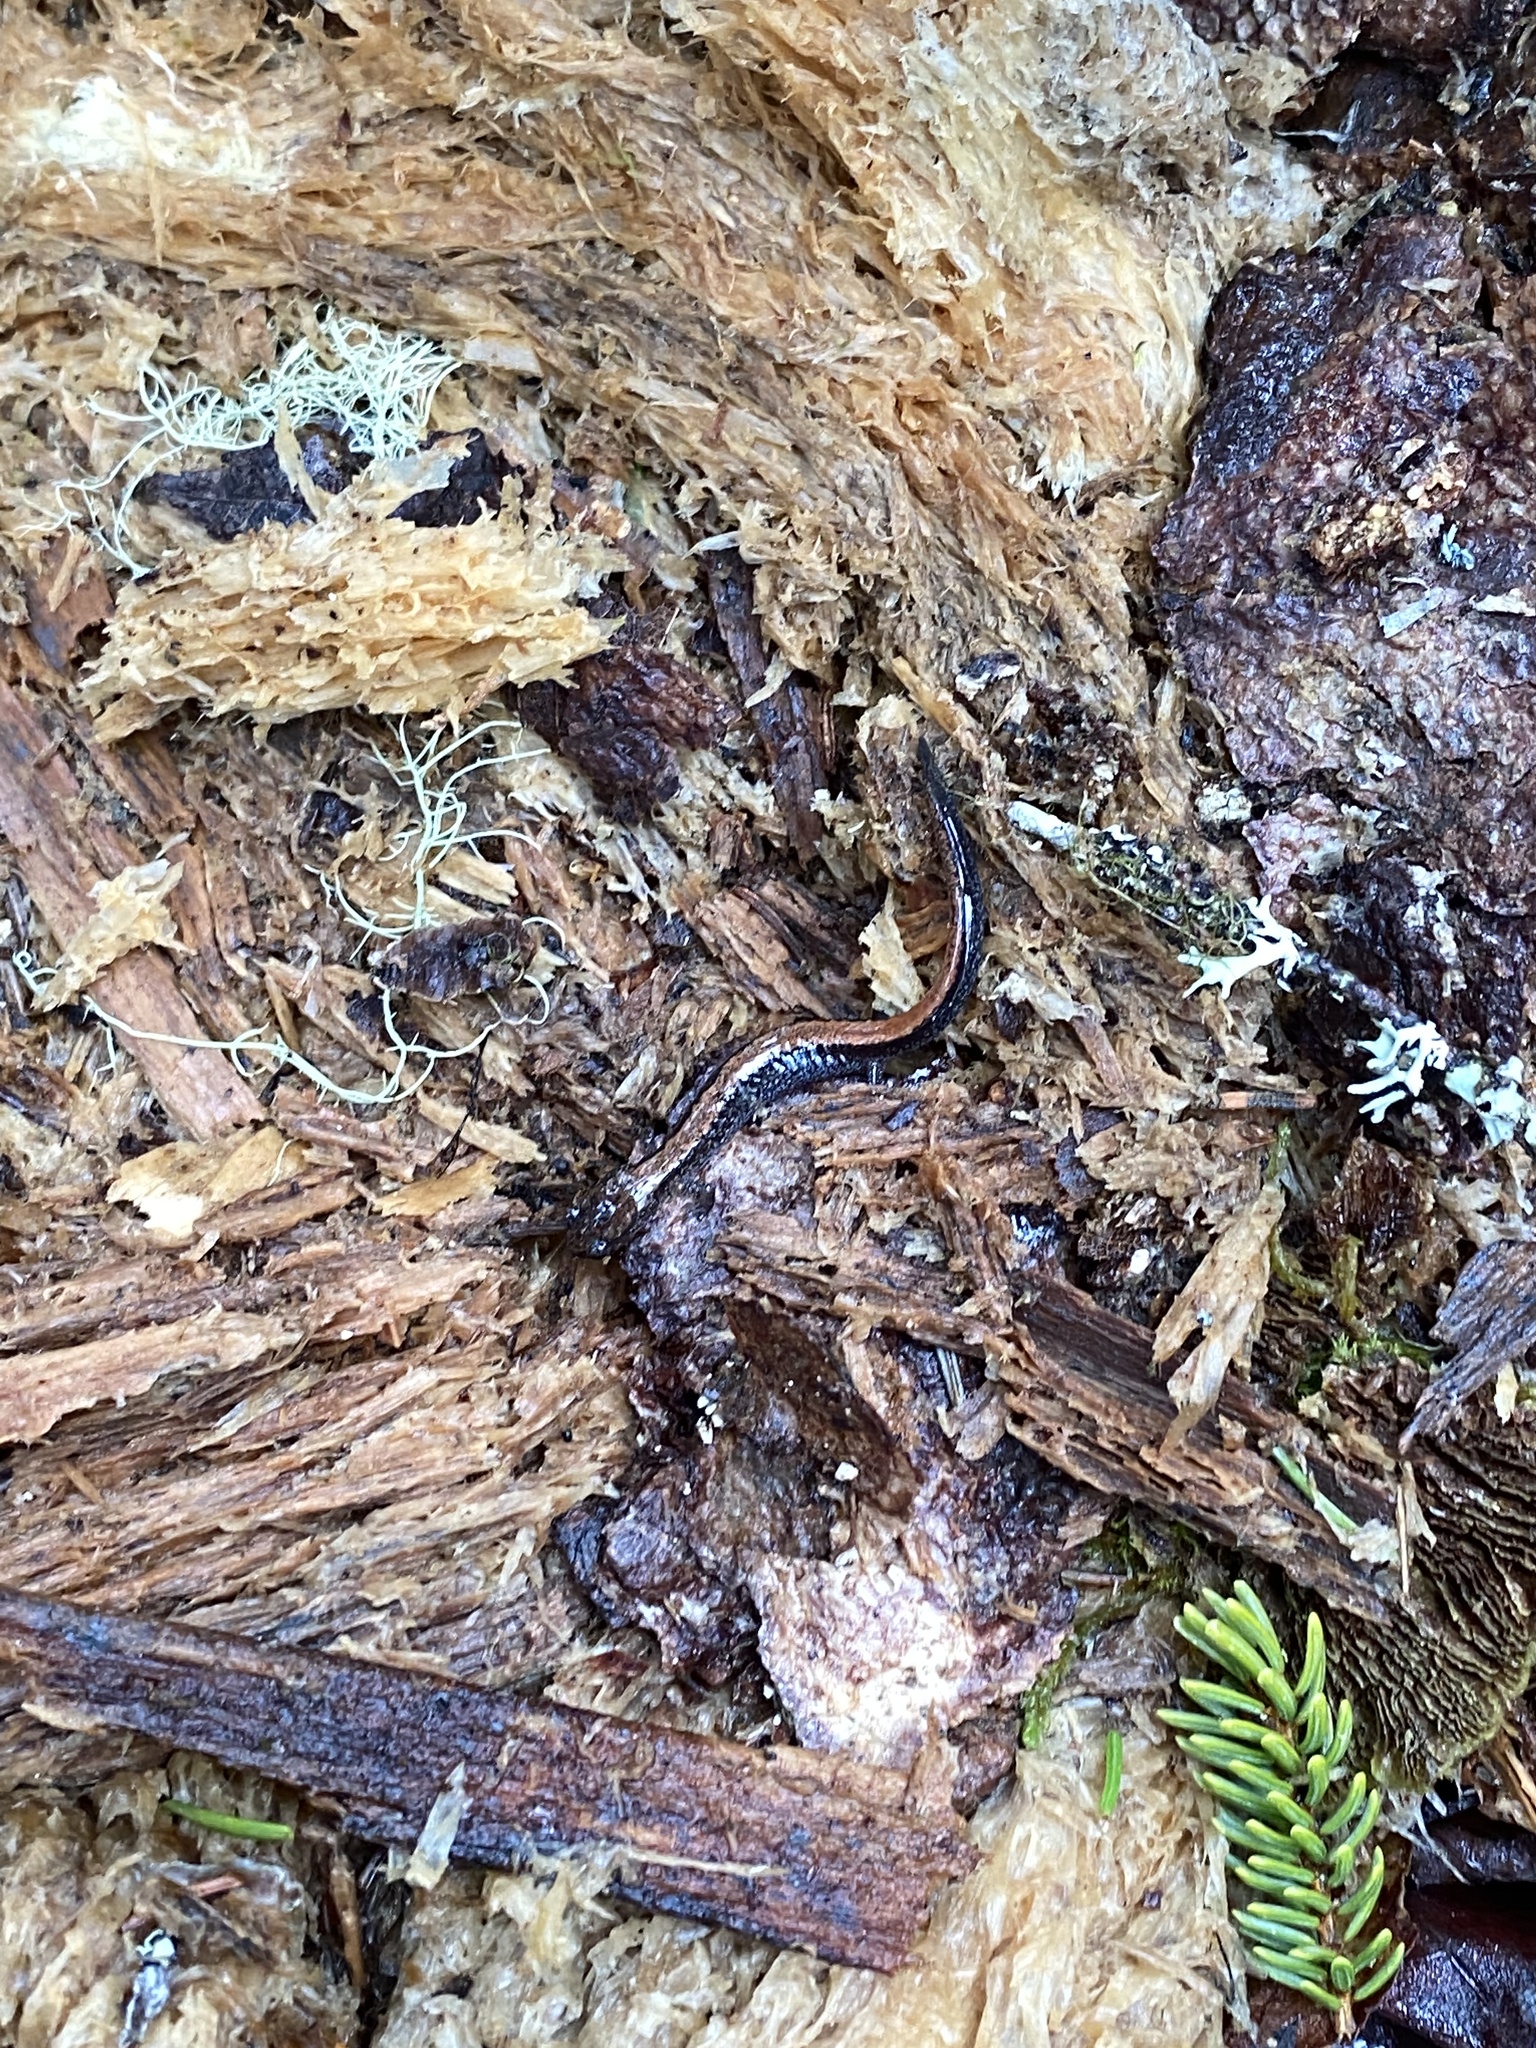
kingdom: Animalia
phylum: Chordata
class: Amphibia
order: Caudata
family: Plethodontidae
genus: Plethodon
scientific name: Plethodon cinereus
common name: Redback salamander
